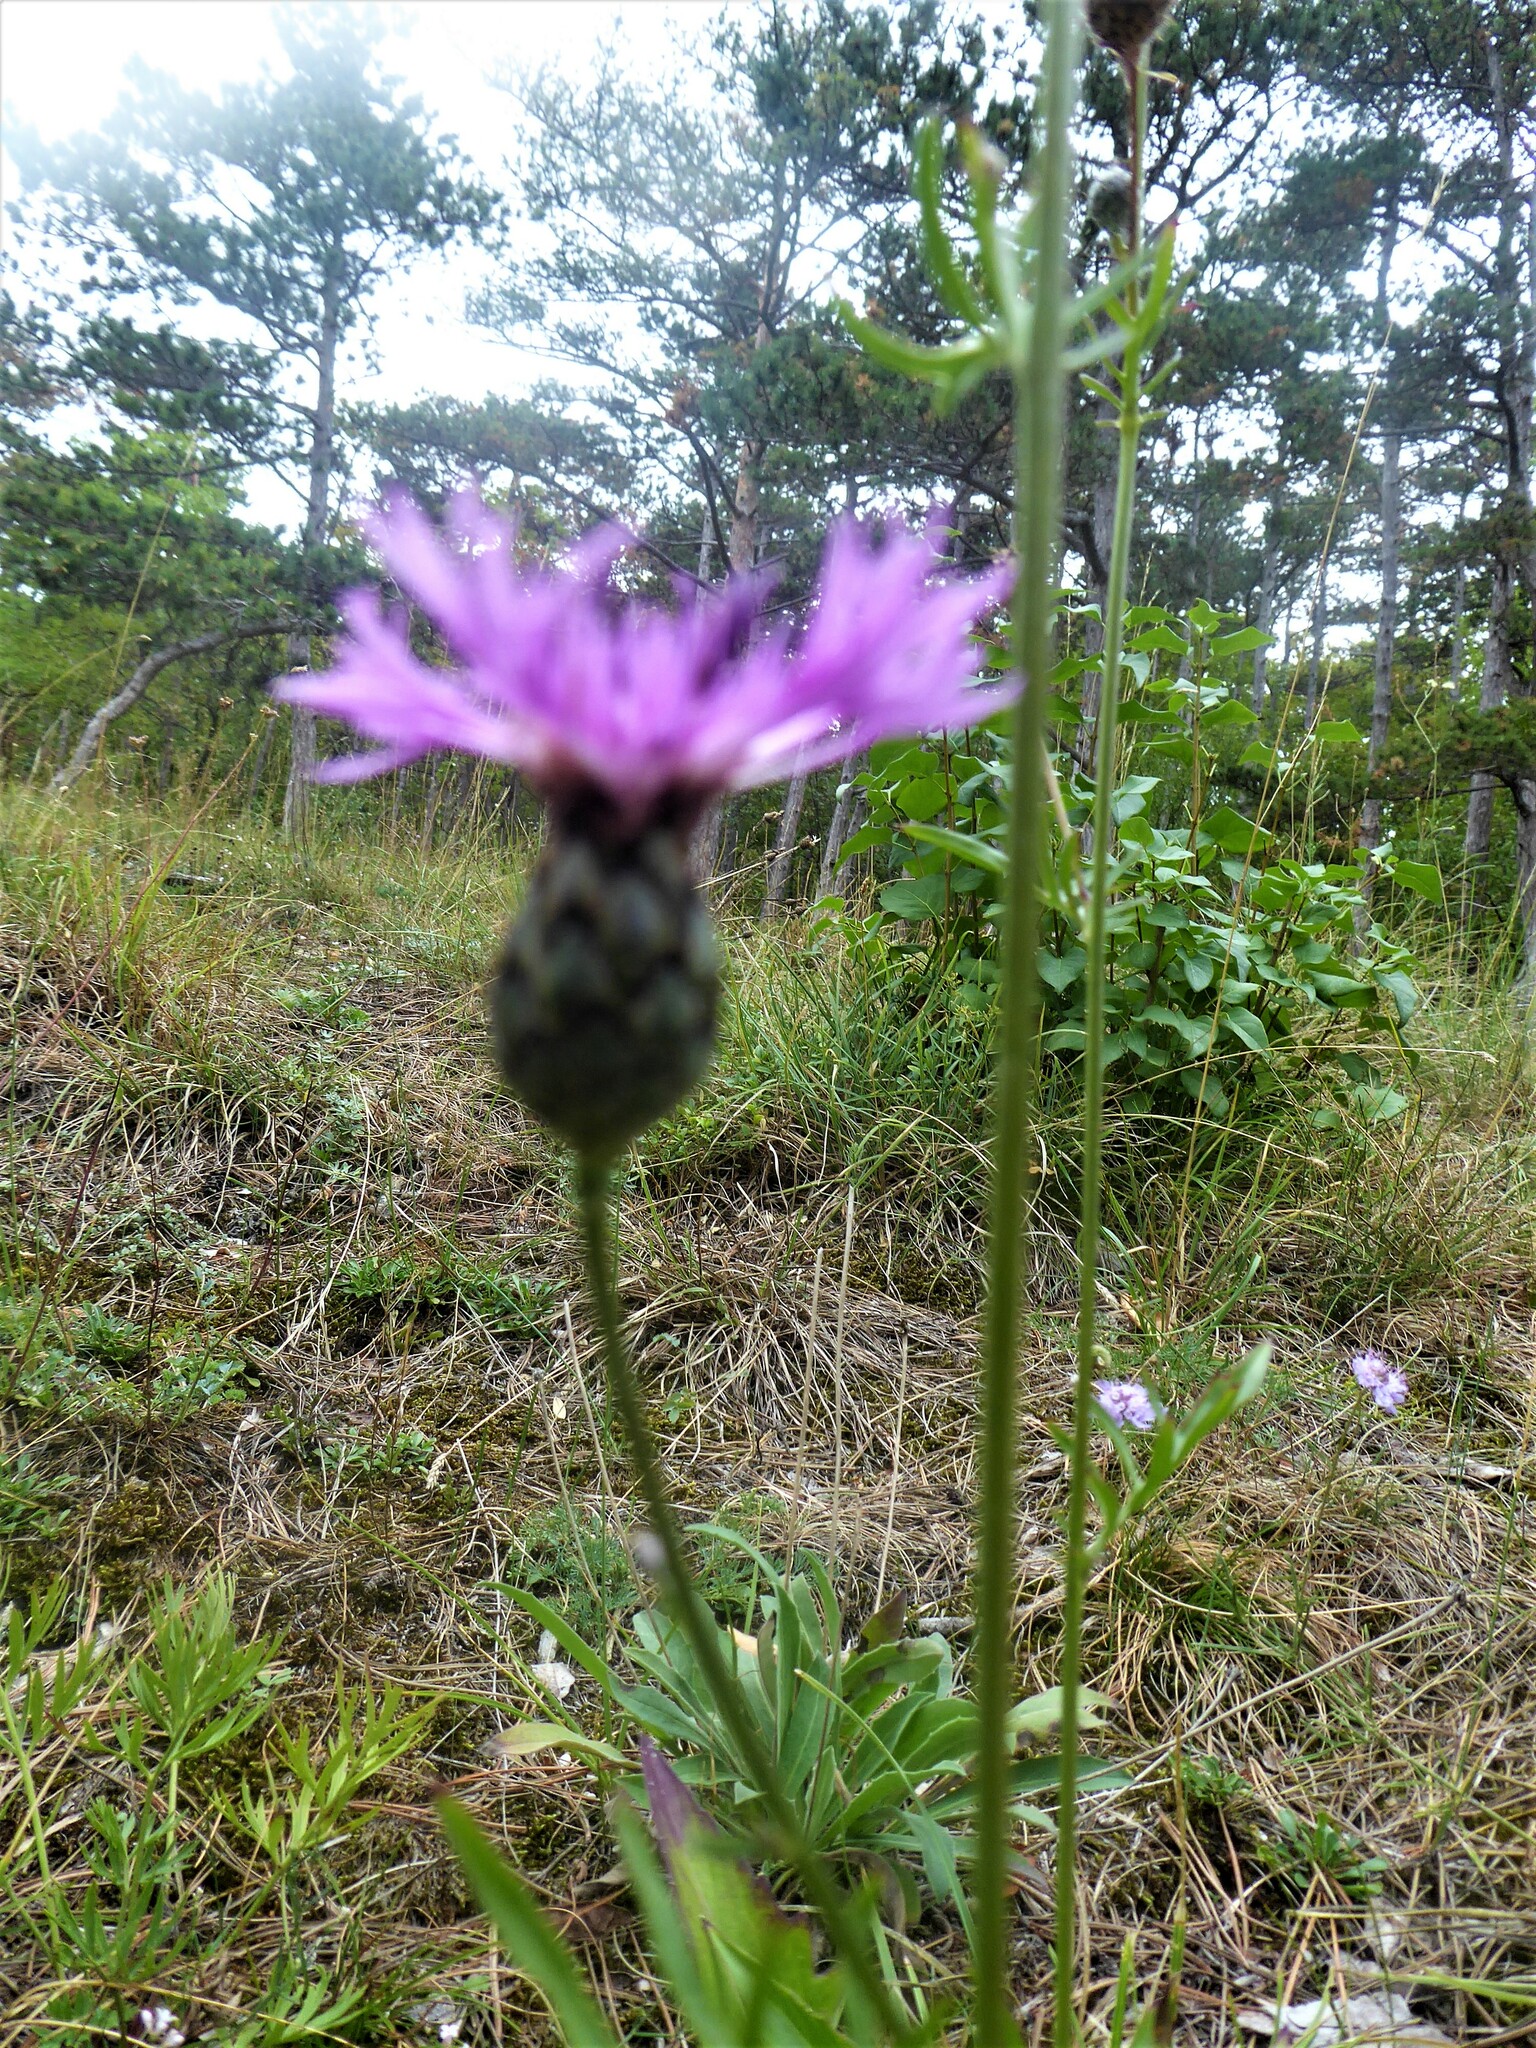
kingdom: Plantae
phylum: Tracheophyta
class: Magnoliopsida
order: Asterales
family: Asteraceae
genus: Centaurea
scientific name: Centaurea scabiosa
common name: Greater knapweed
